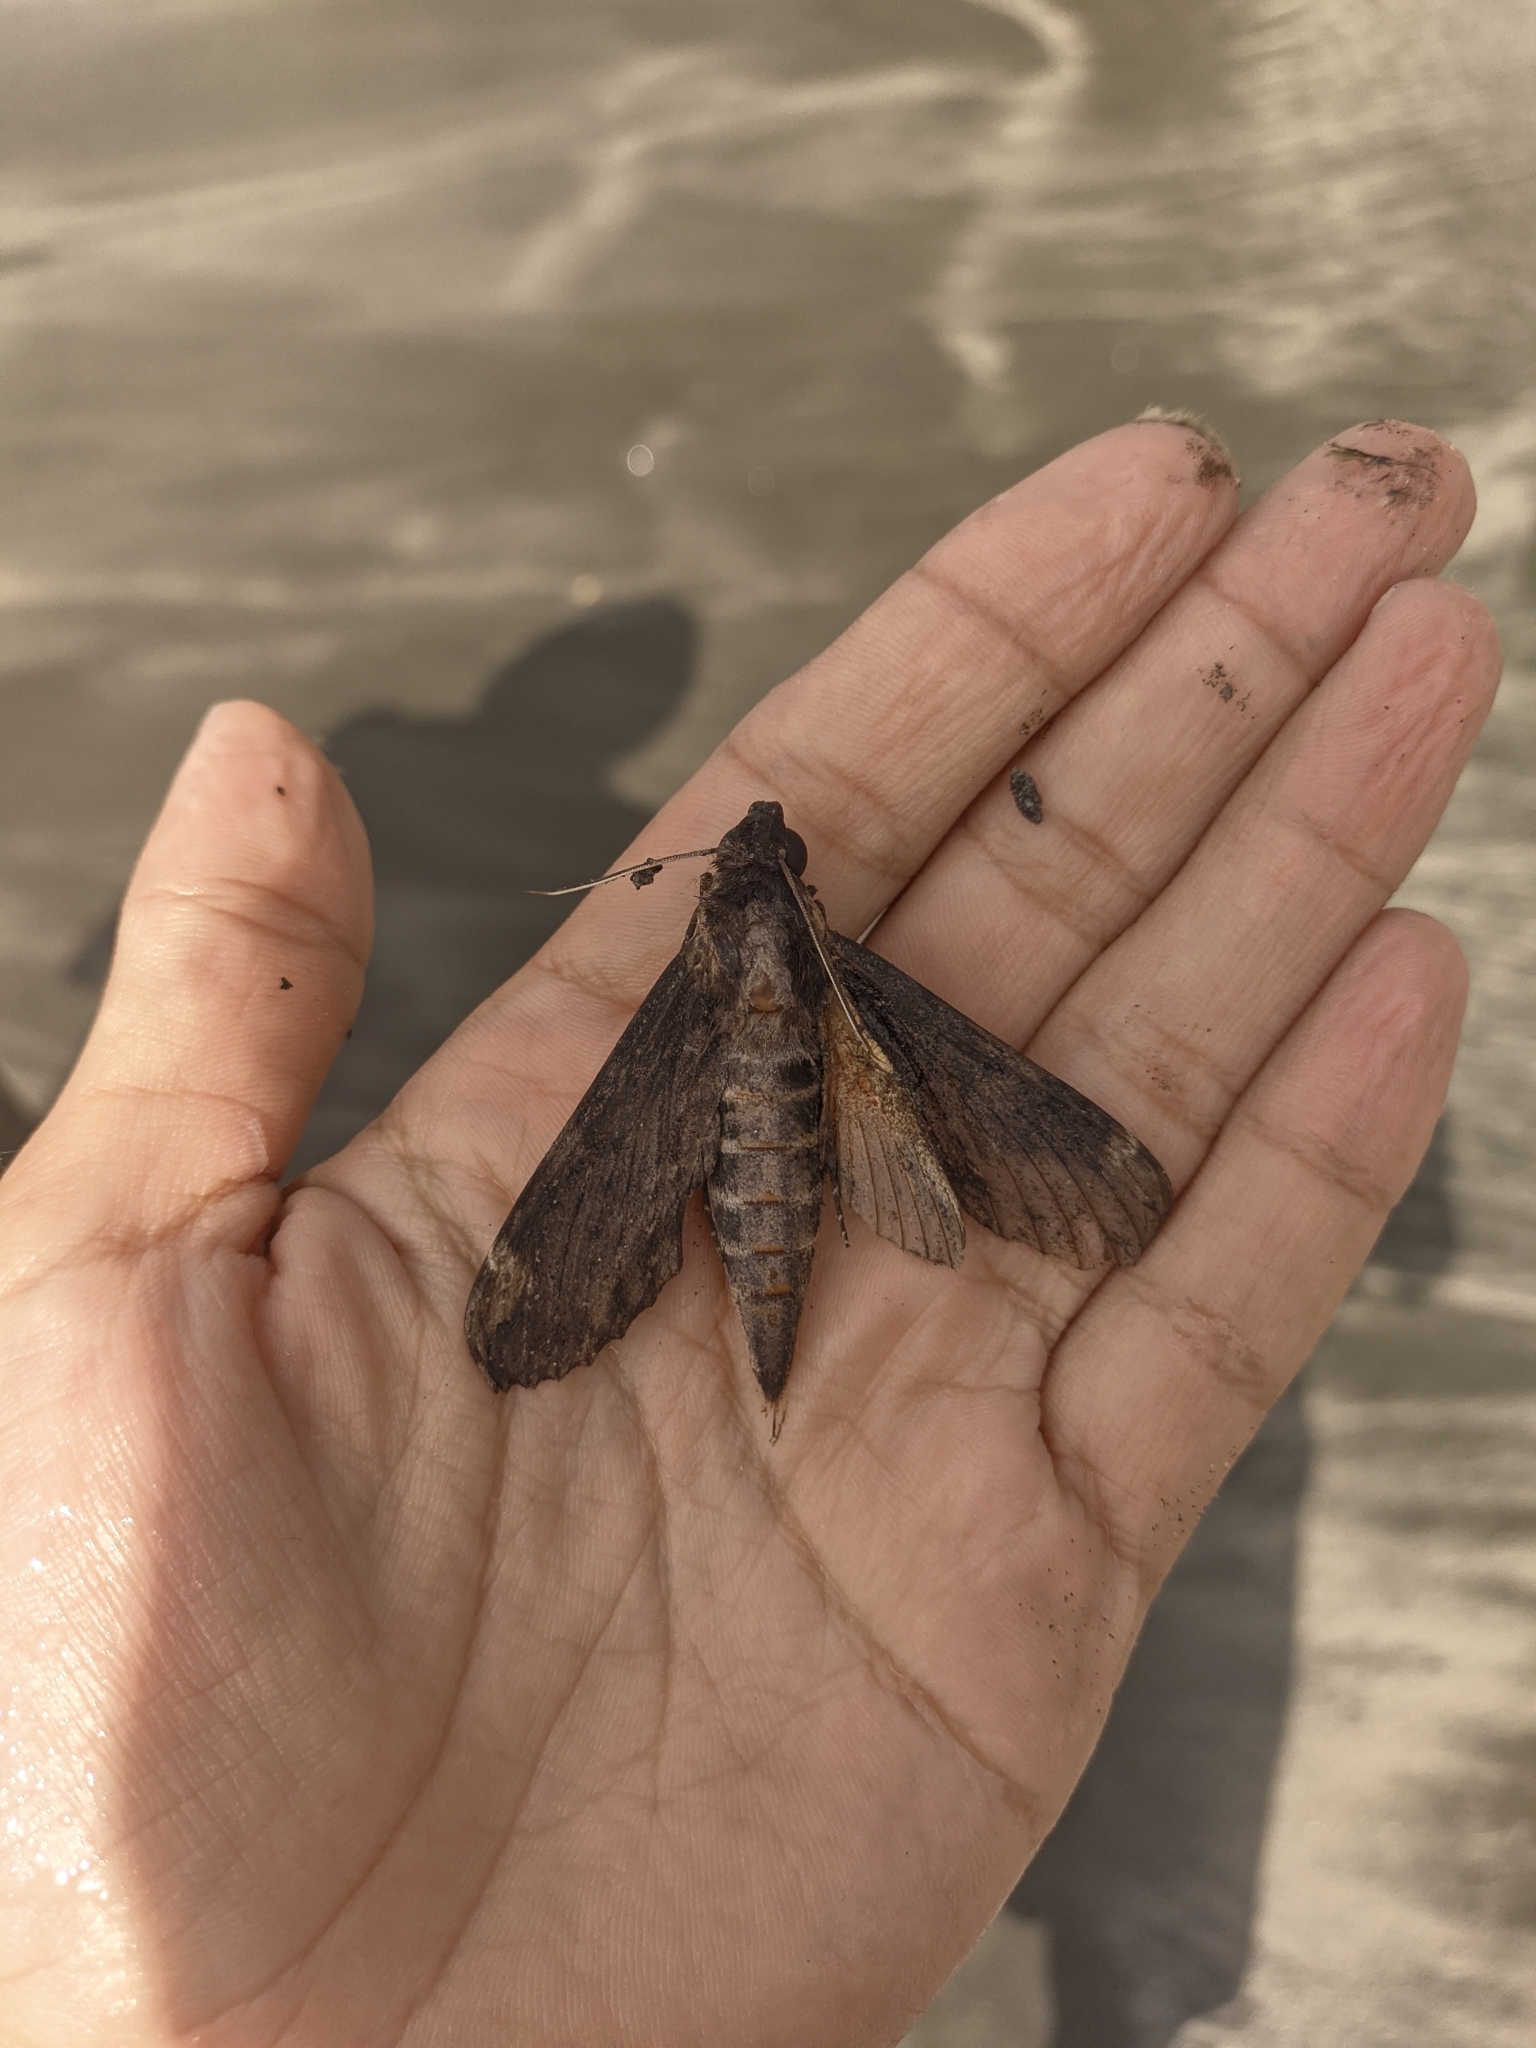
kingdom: Animalia
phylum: Arthropoda
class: Insecta
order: Lepidoptera
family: Sphingidae
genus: Erinnyis
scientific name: Erinnyis crameri
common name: Cramer's sphinx
